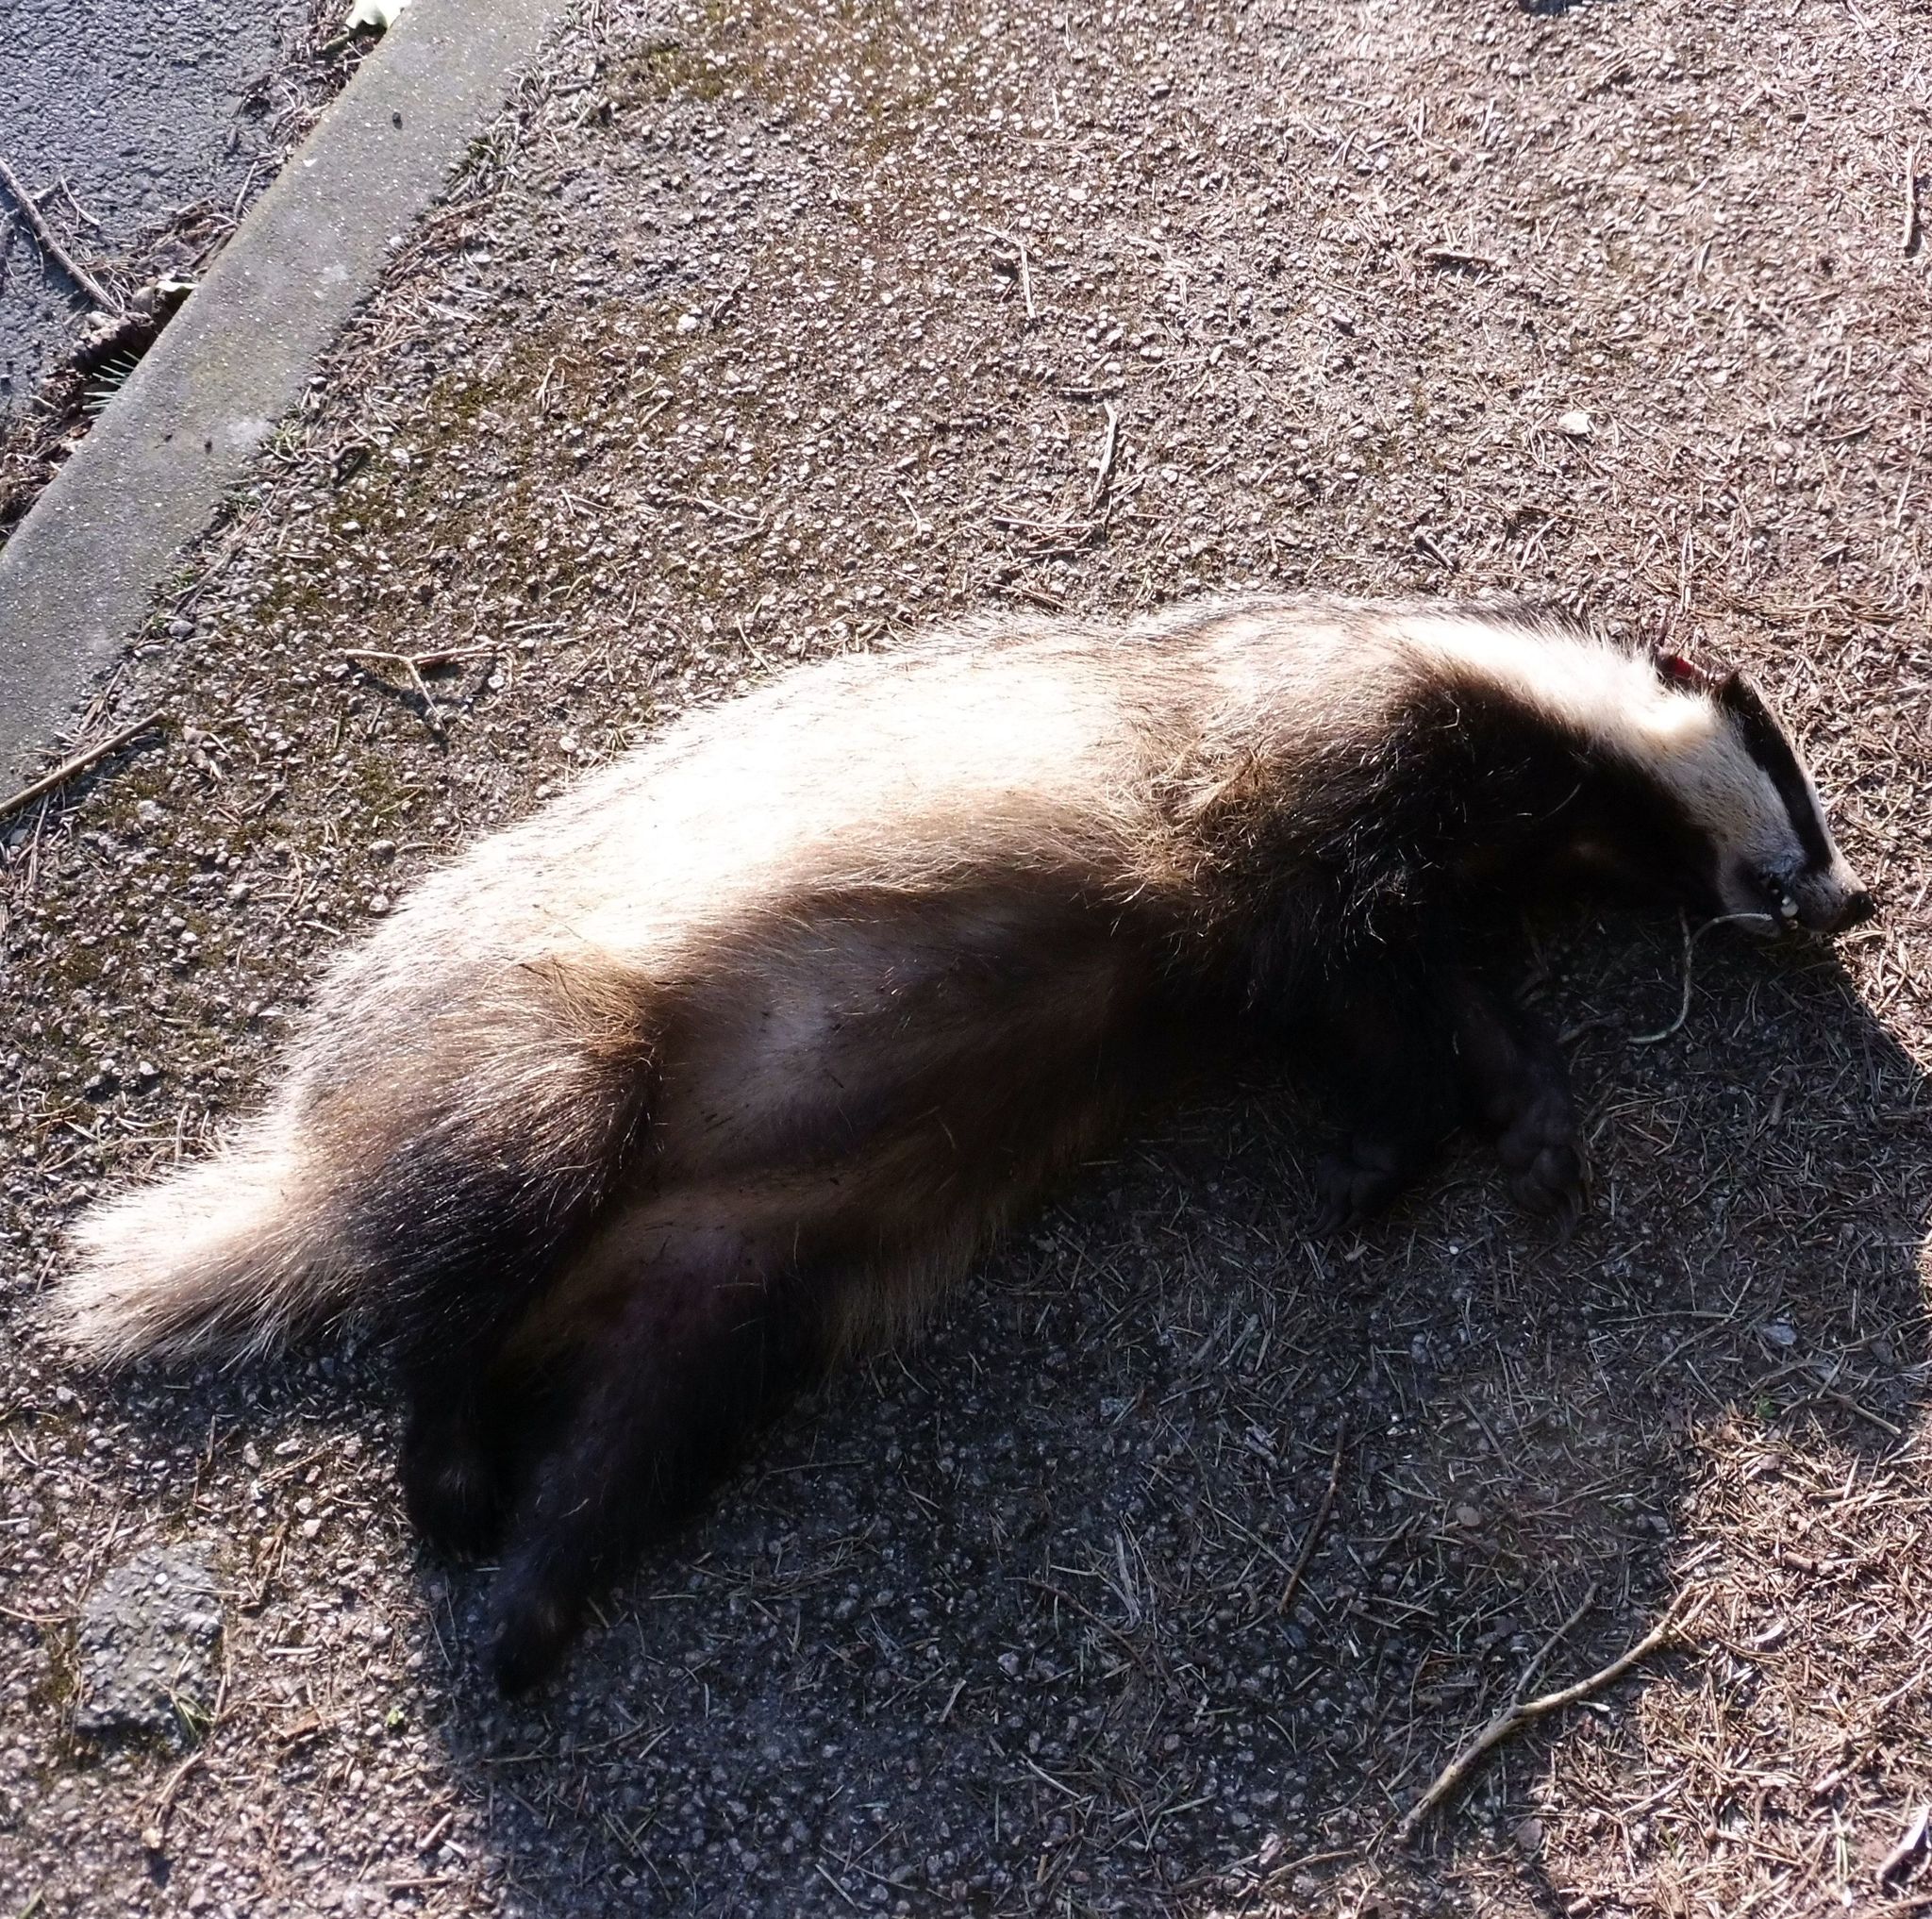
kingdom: Animalia
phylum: Chordata
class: Mammalia
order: Carnivora
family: Mustelidae
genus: Meles
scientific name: Meles meles
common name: Eurasian badger
